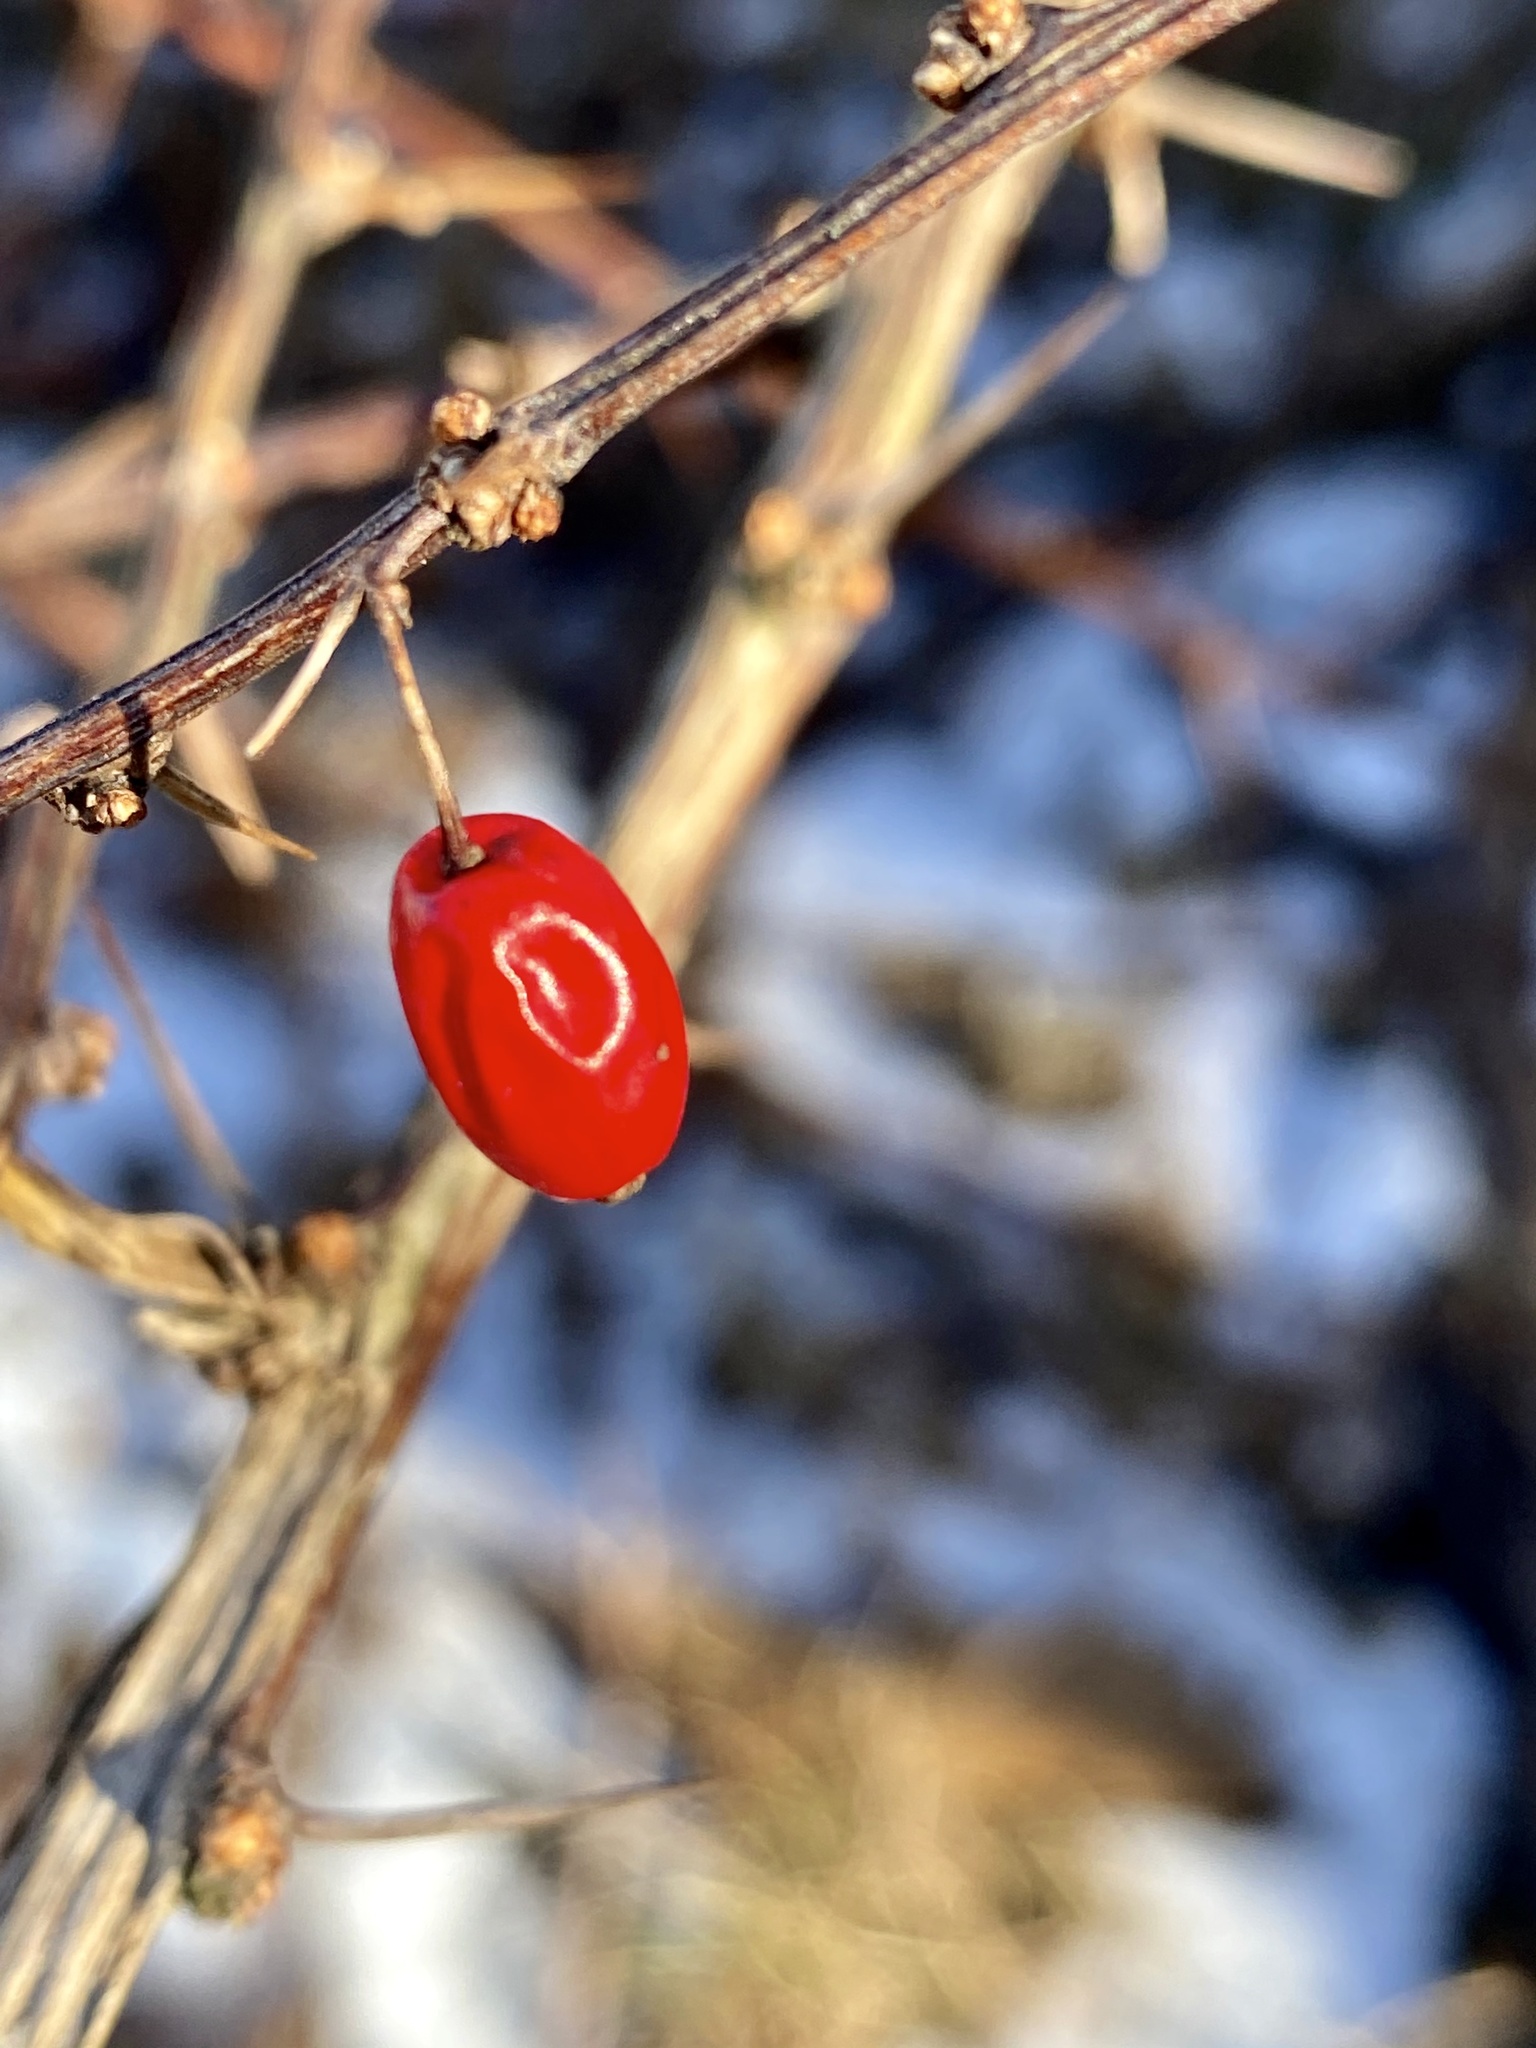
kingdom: Plantae
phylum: Tracheophyta
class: Magnoliopsida
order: Ranunculales
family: Berberidaceae
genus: Berberis
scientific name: Berberis thunbergii
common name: Japanese barberry
